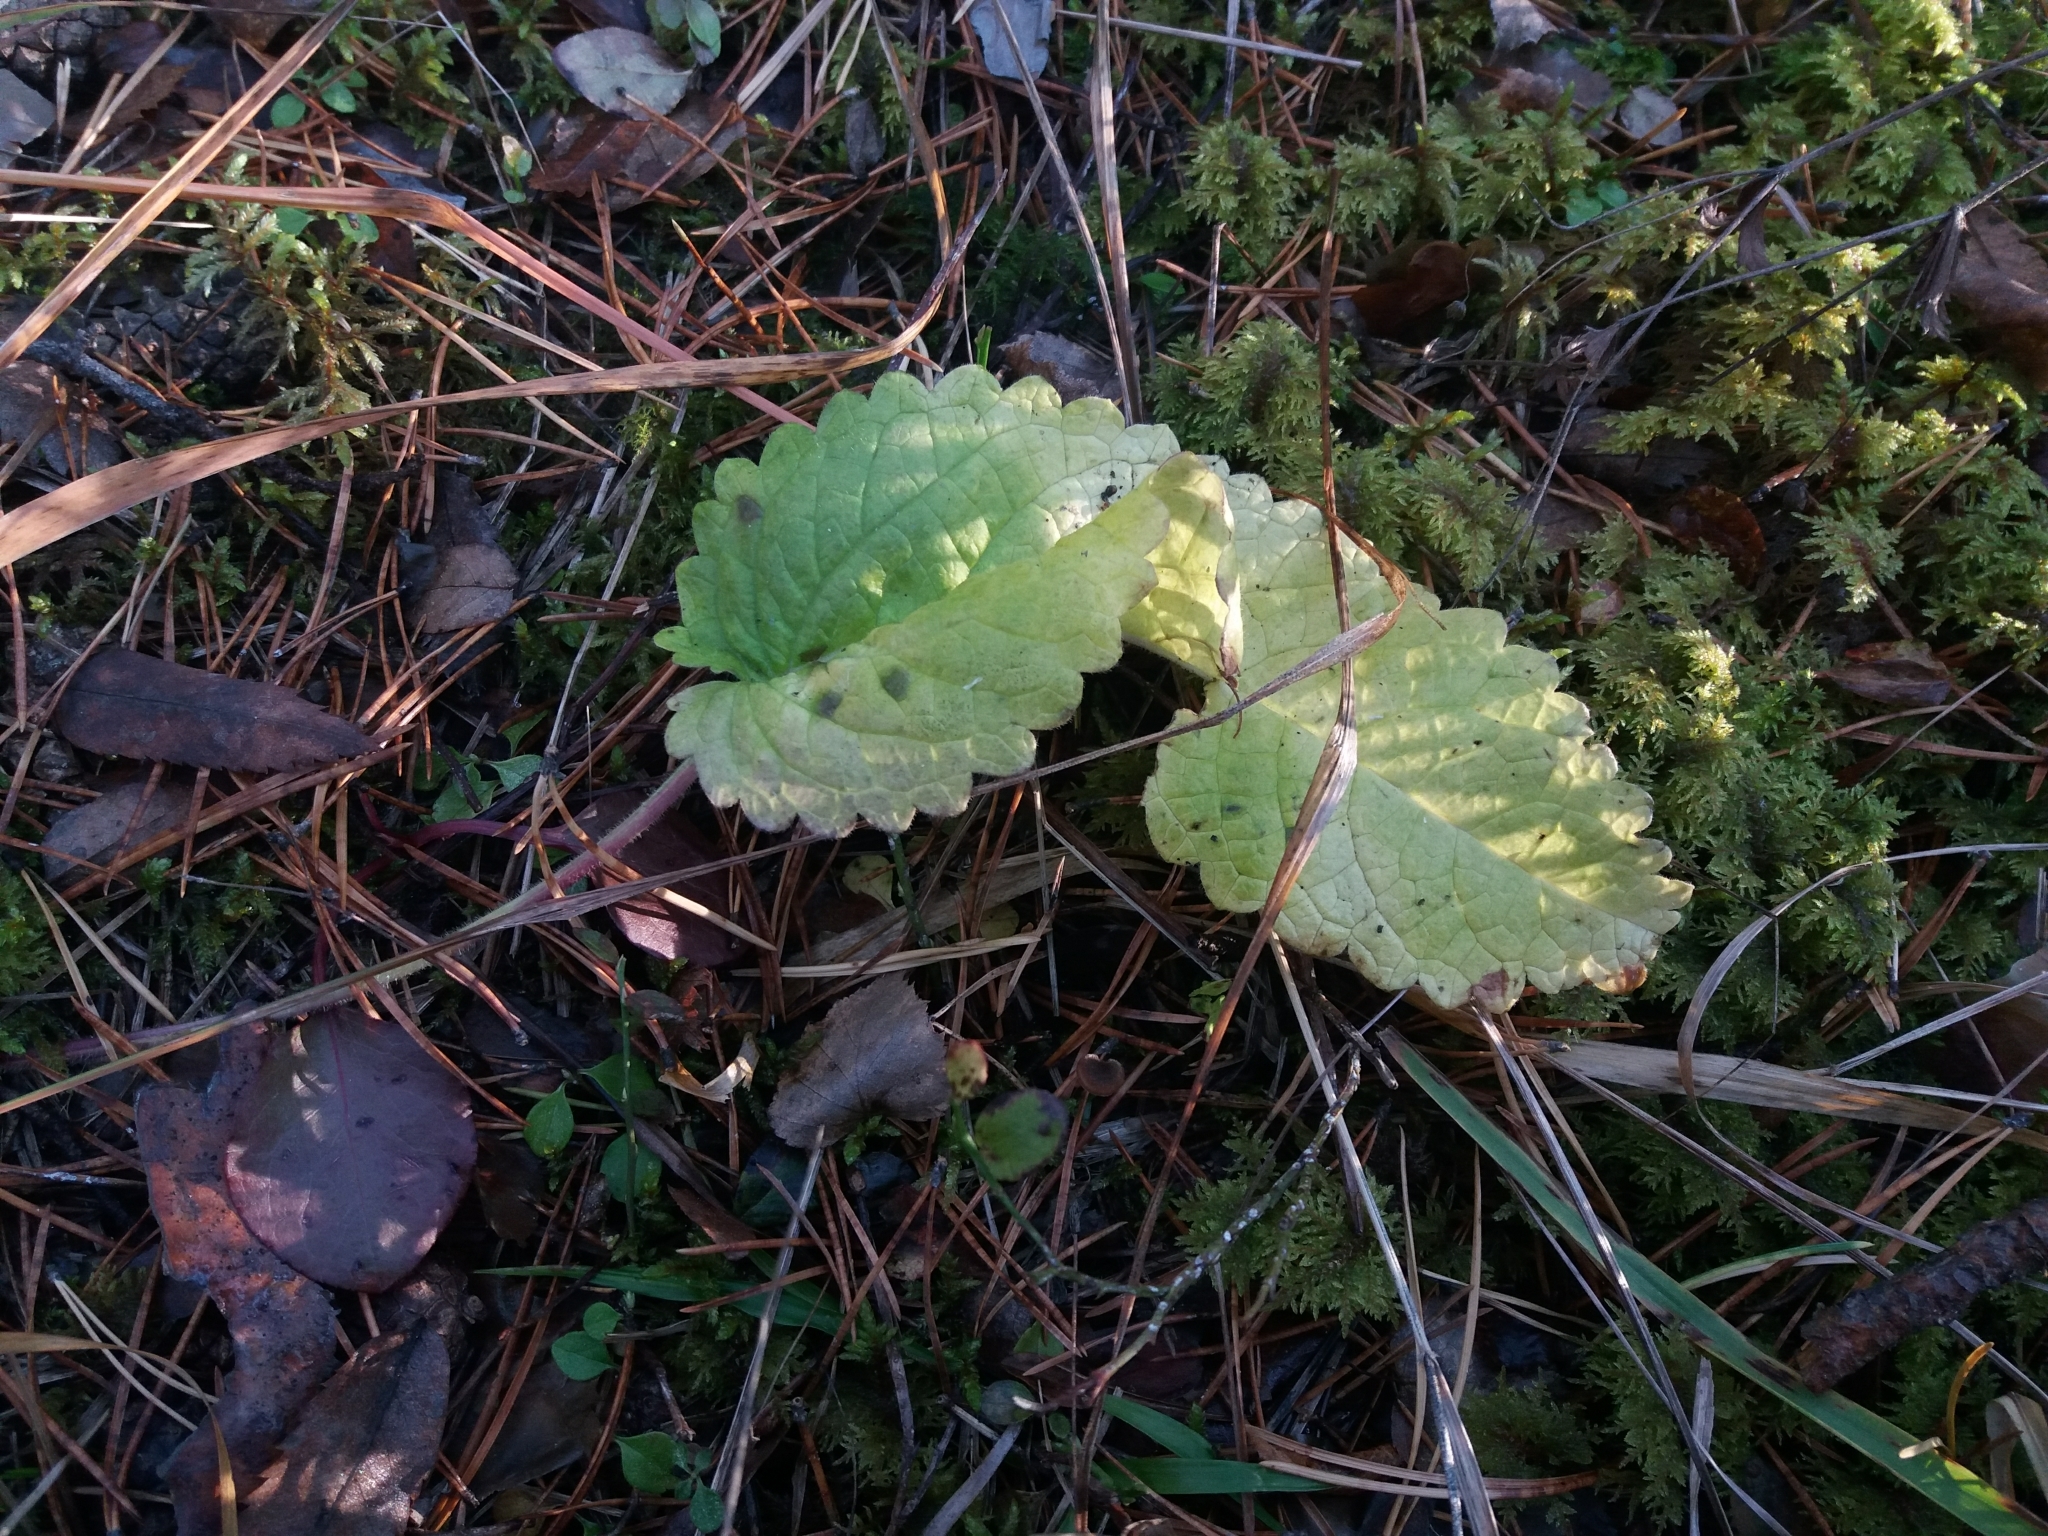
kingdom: Plantae
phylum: Tracheophyta
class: Magnoliopsida
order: Lamiales
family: Lamiaceae
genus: Betonica
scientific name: Betonica officinalis
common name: Bishop's-wort
